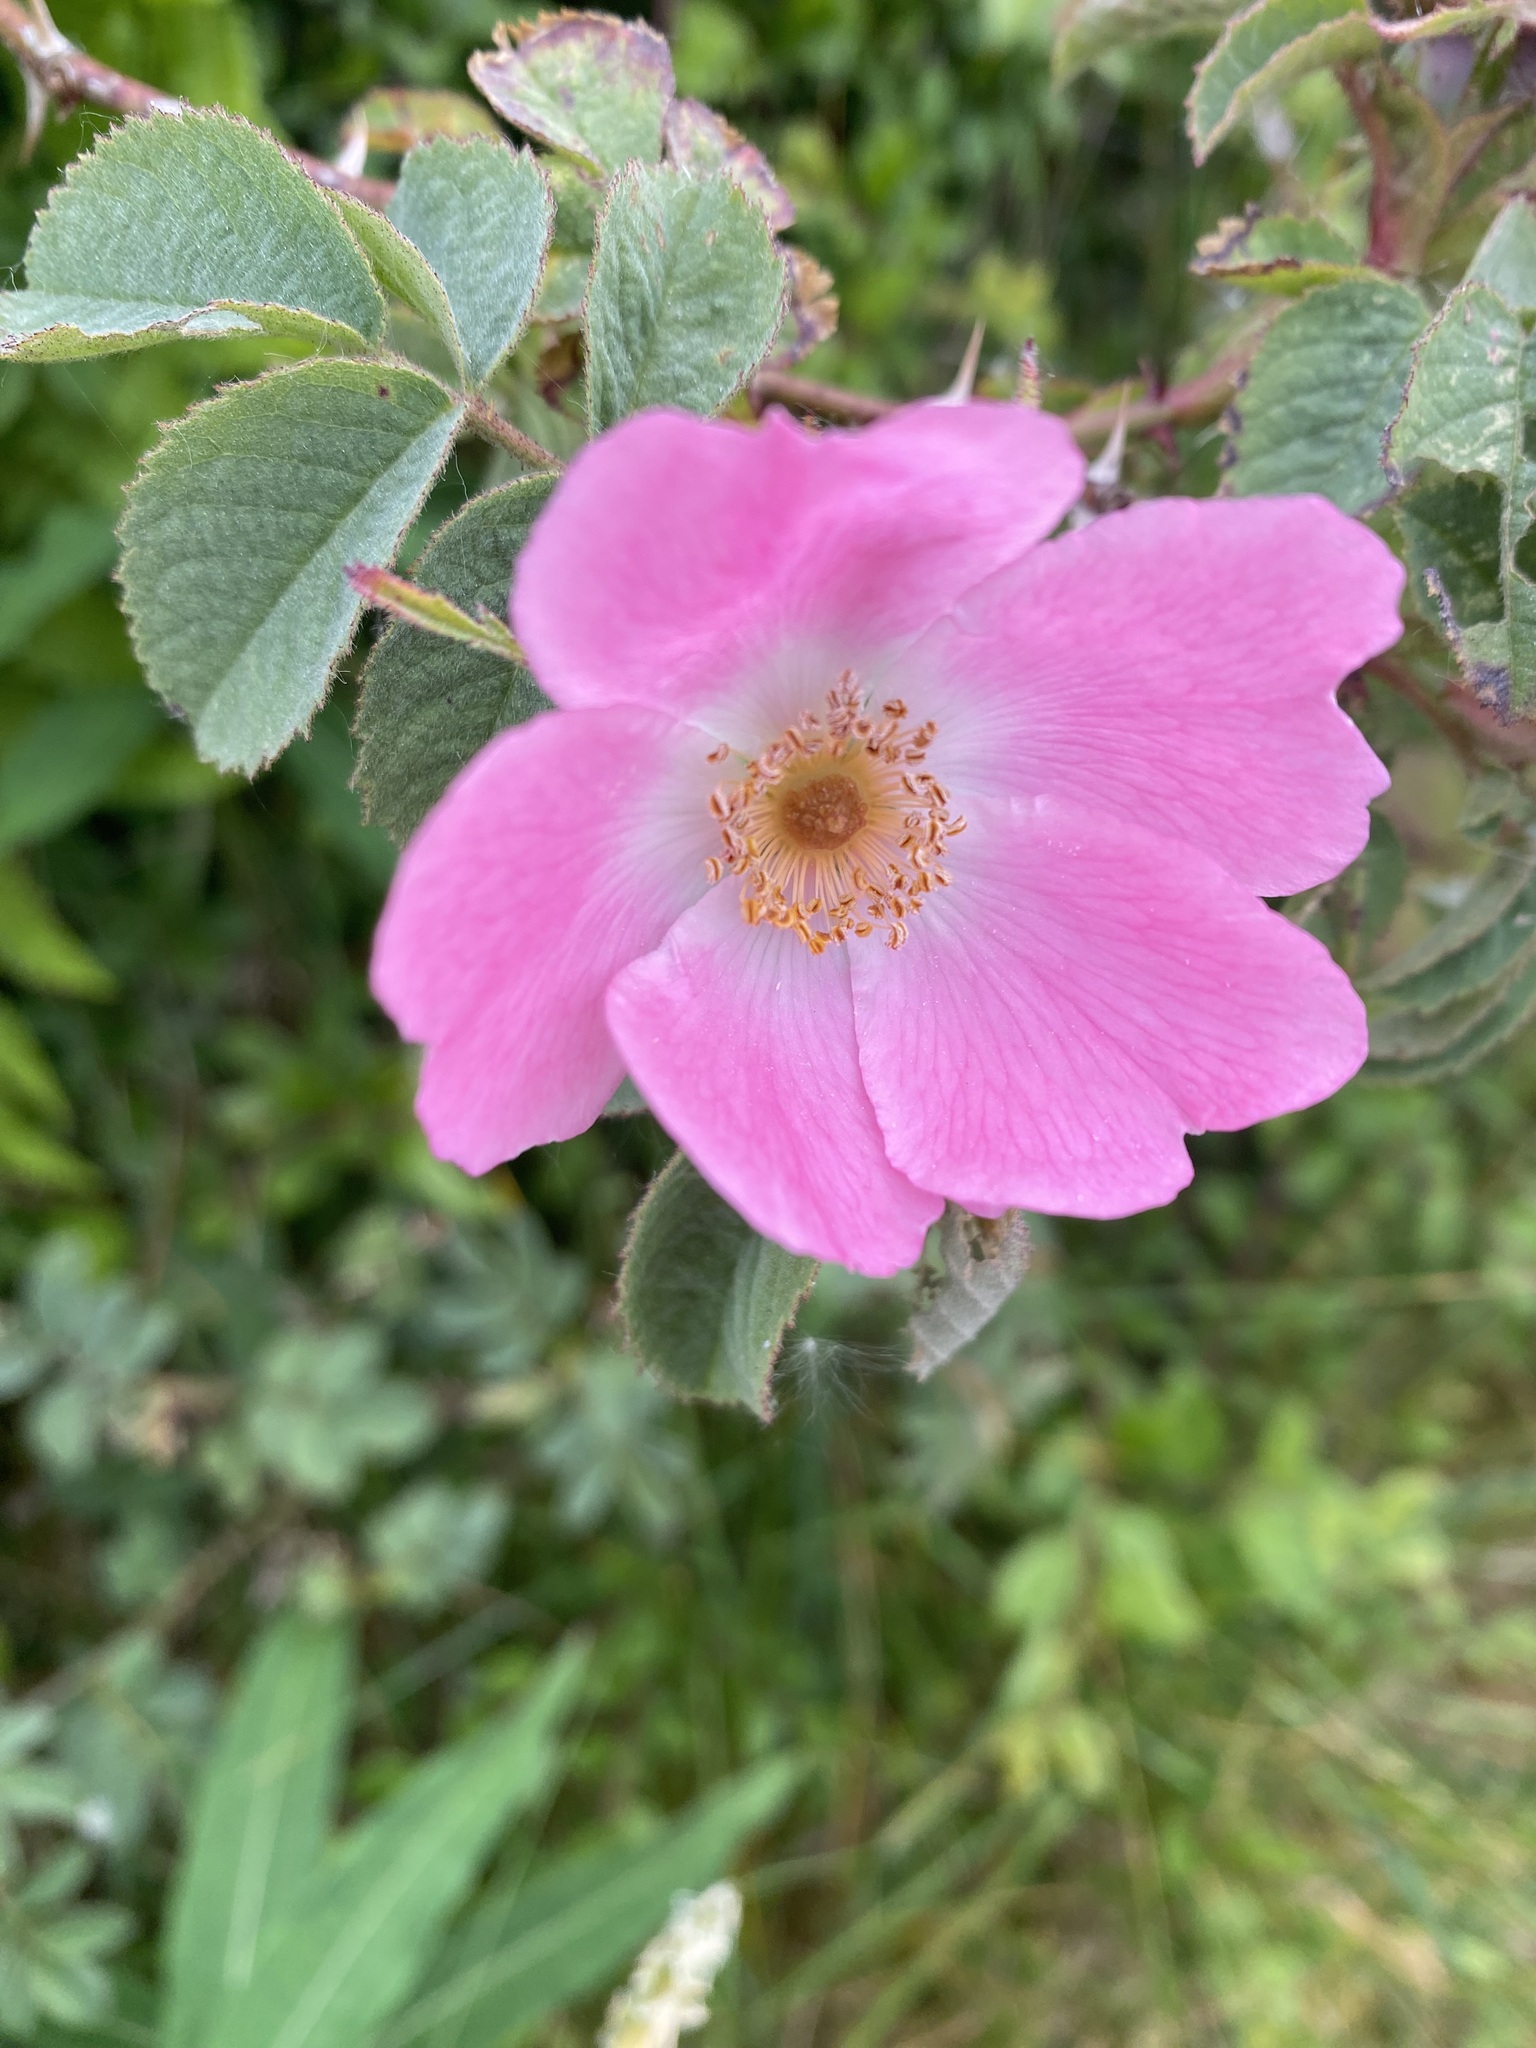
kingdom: Plantae
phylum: Tracheophyta
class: Magnoliopsida
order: Rosales
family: Rosaceae
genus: Rosa
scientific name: Rosa rubiginosa
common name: Sweet-briar
